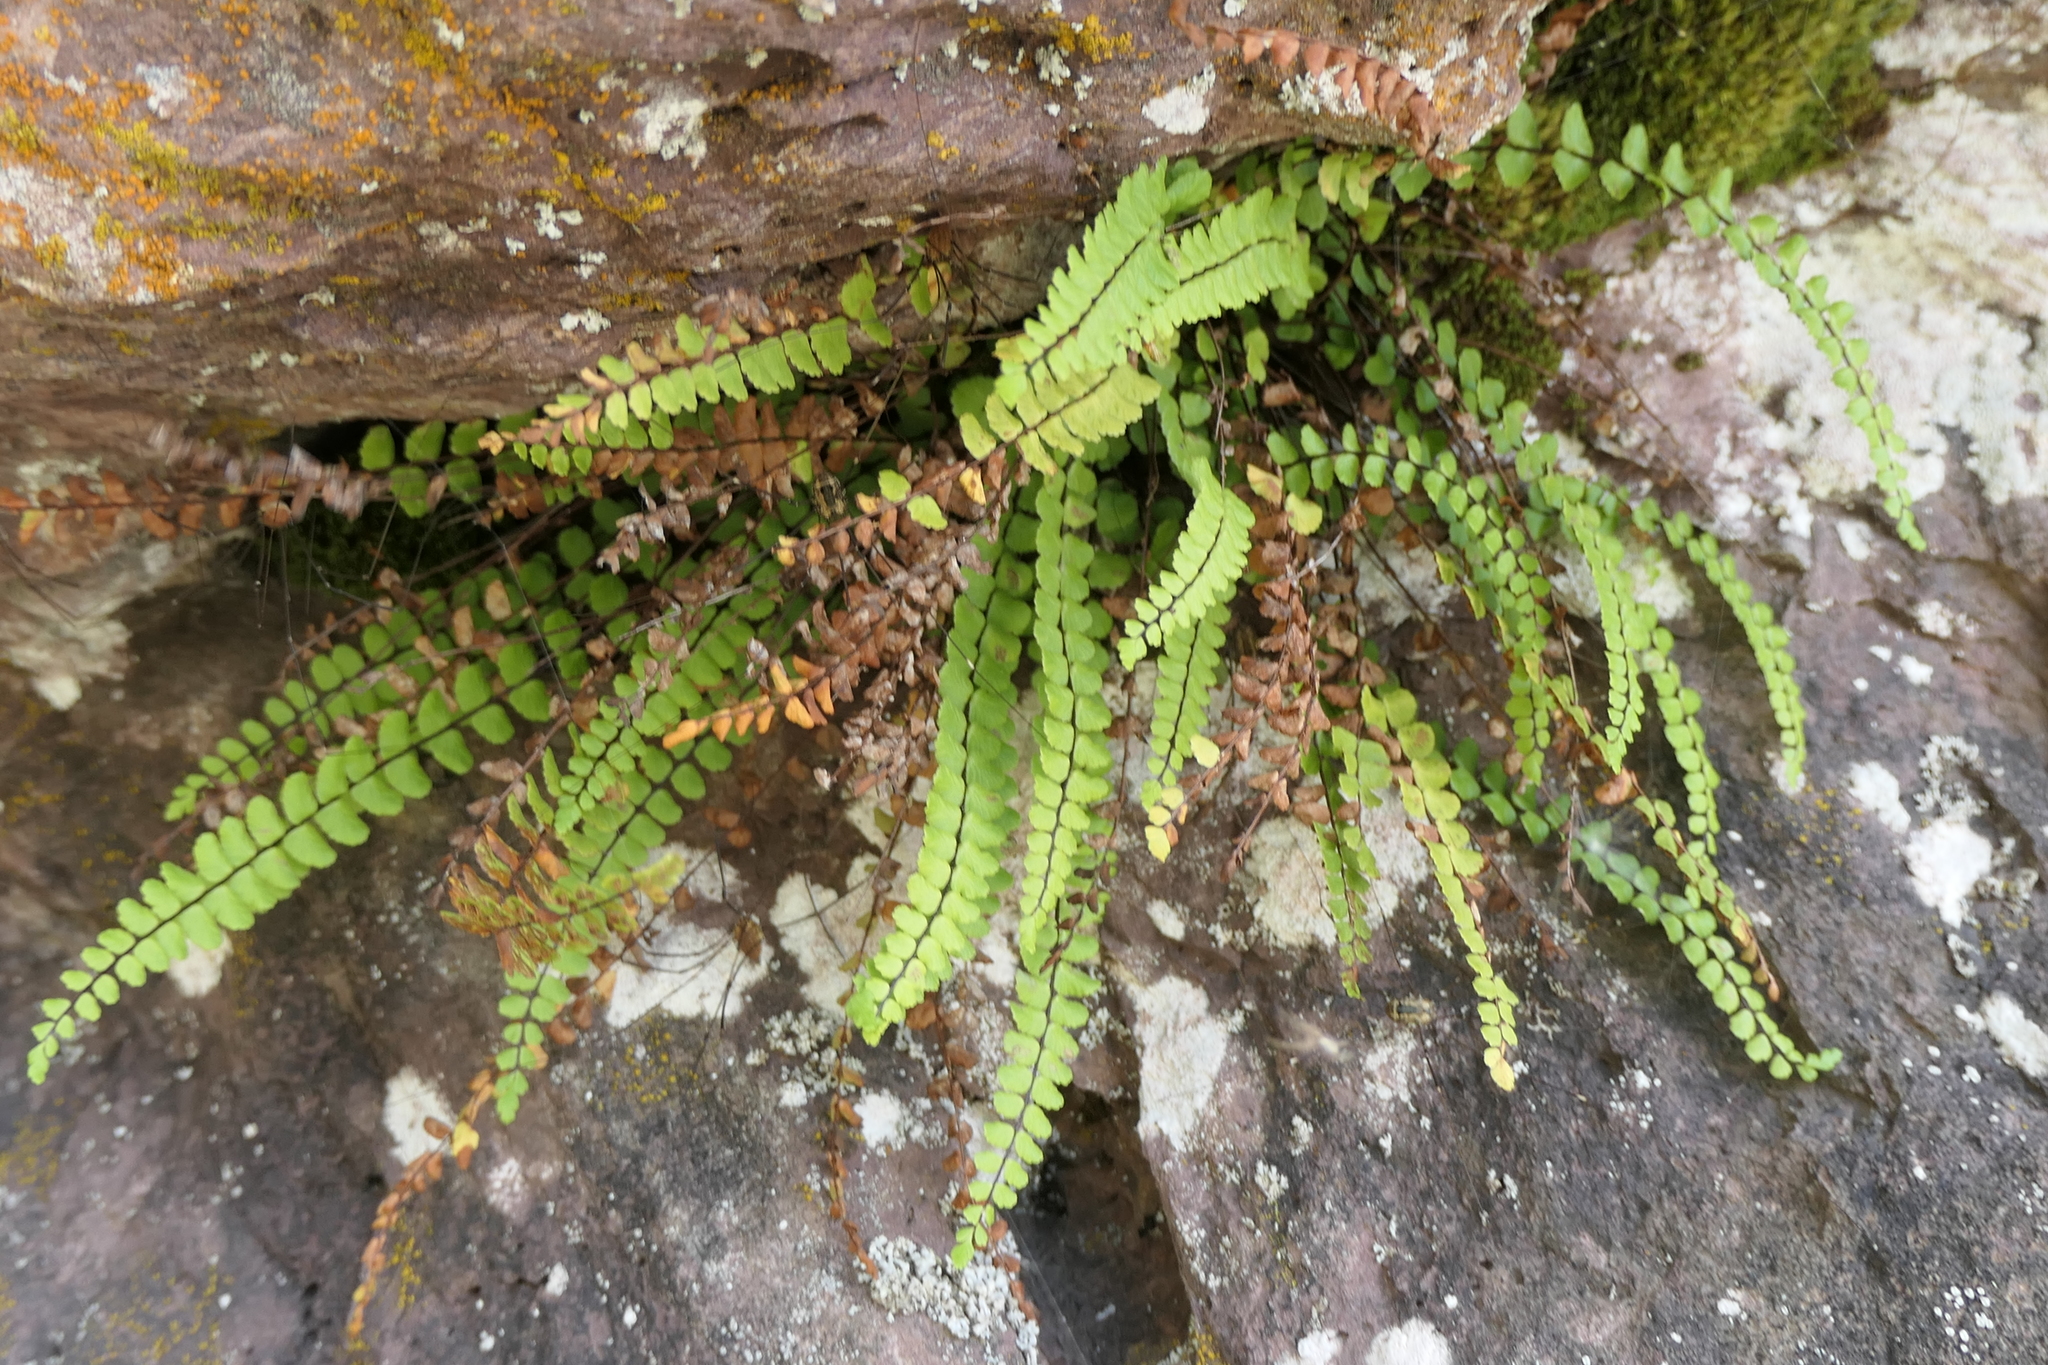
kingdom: Plantae
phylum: Tracheophyta
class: Polypodiopsida
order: Polypodiales
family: Aspleniaceae
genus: Asplenium
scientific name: Asplenium trichomanes
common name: Maidenhair spleenwort
